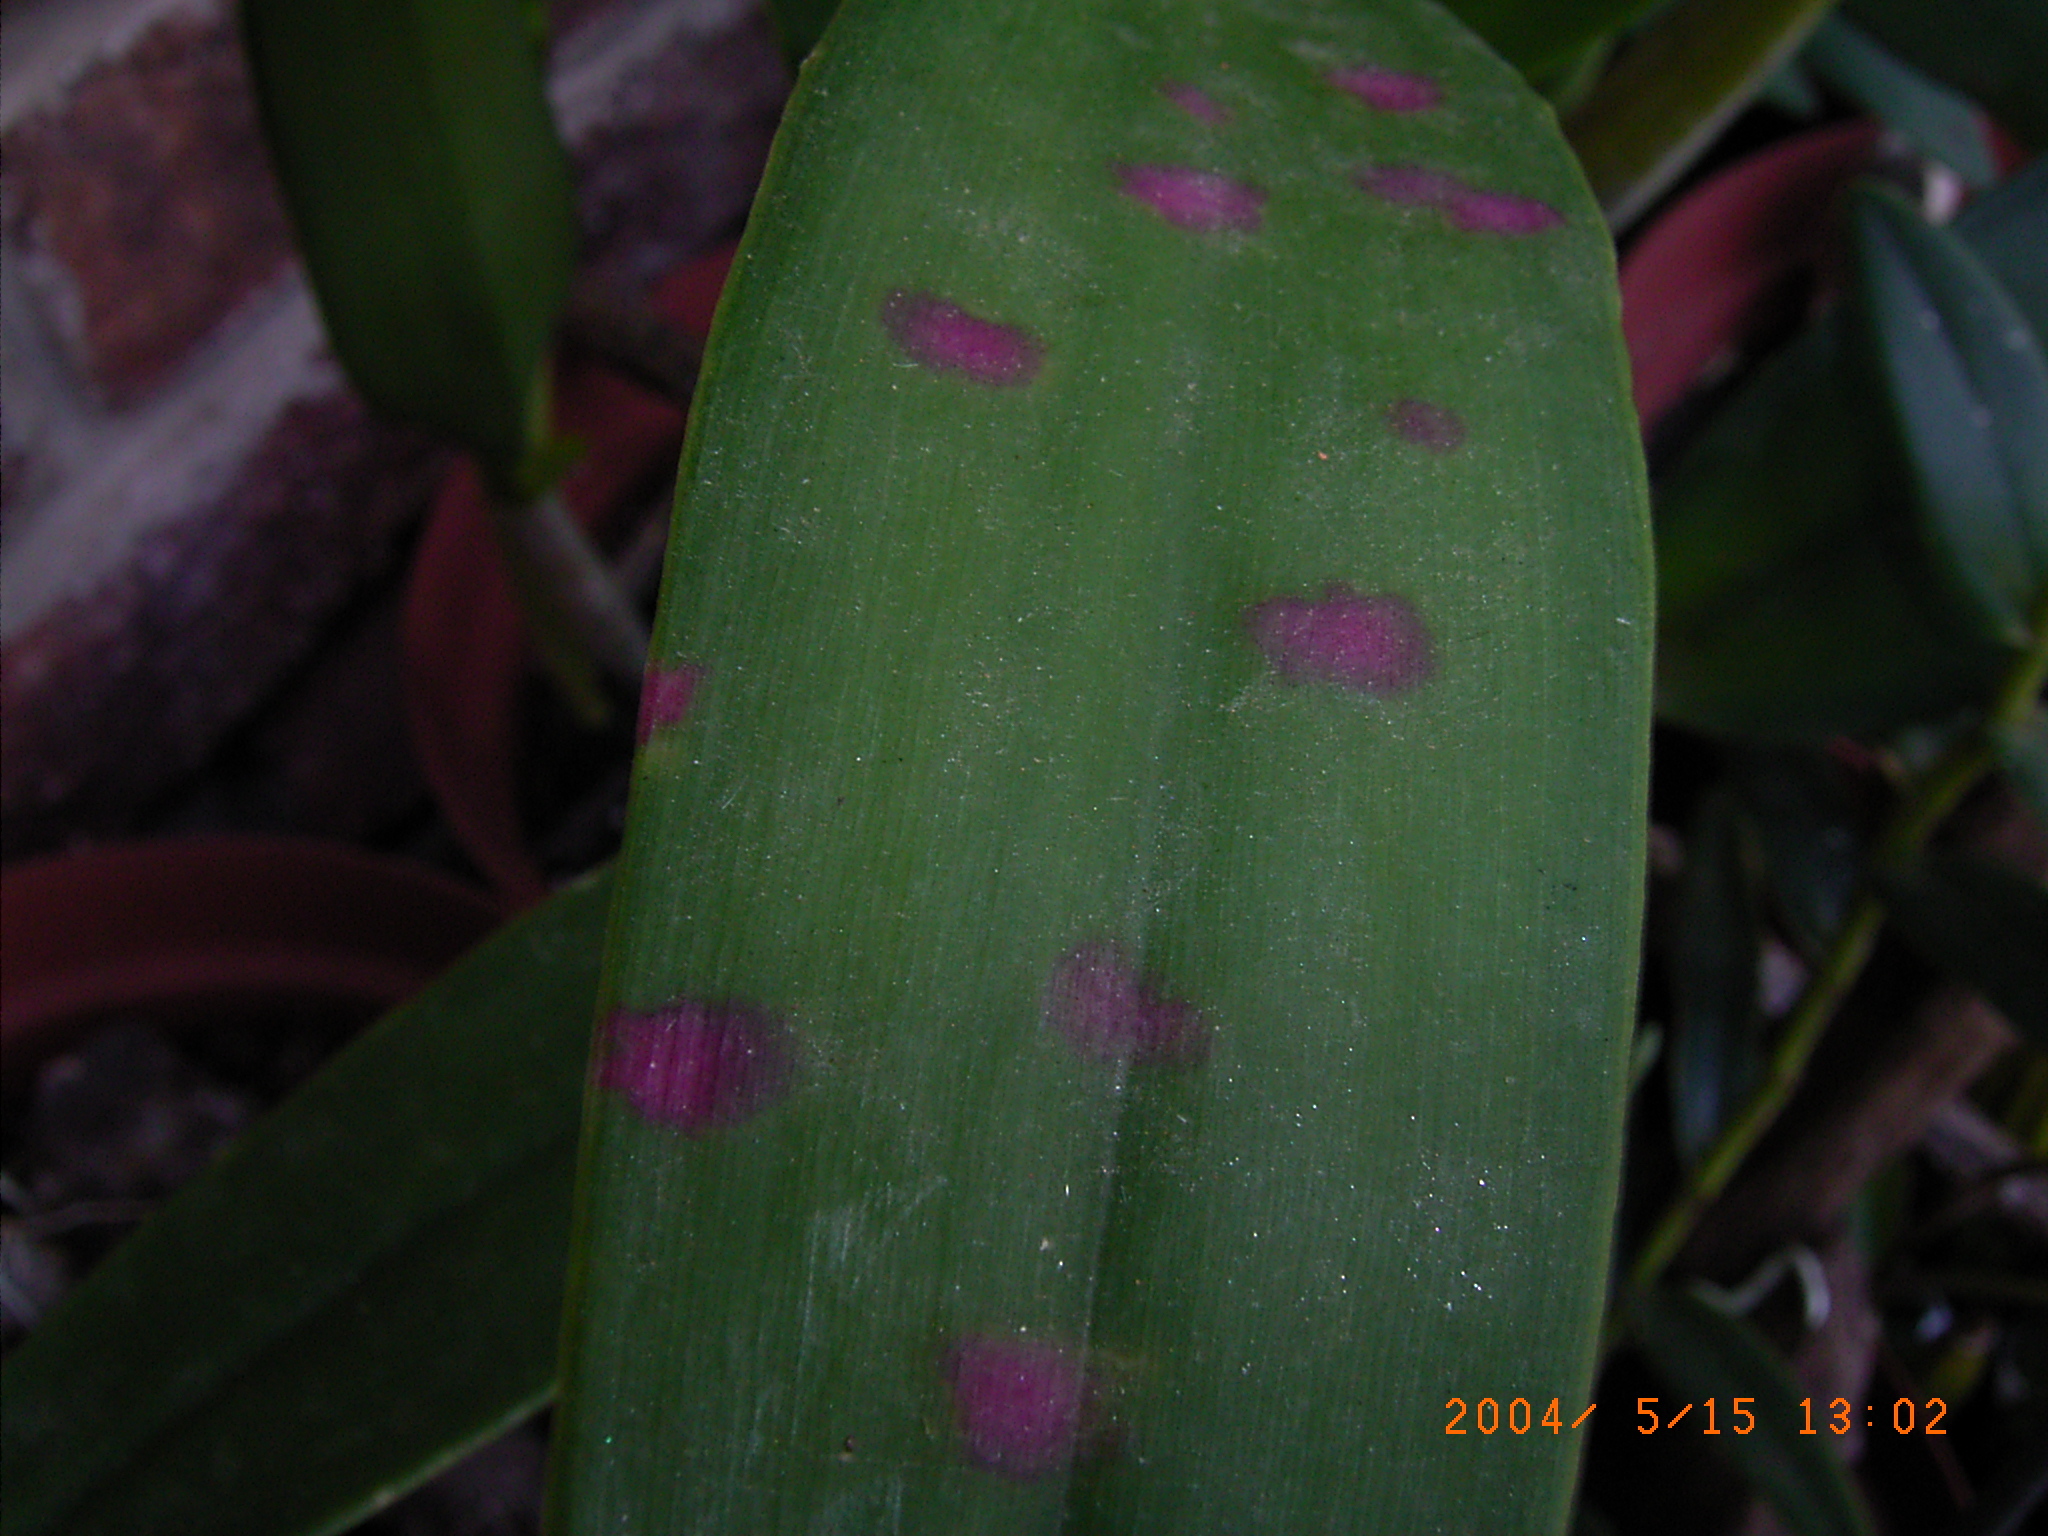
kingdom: Viruses
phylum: Kitrinoviricota
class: Alsuviricetes
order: Martellivirales
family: Virgaviridae
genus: Tobamovirus
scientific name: Tobamovirus Odontoglossum ringspot virus
